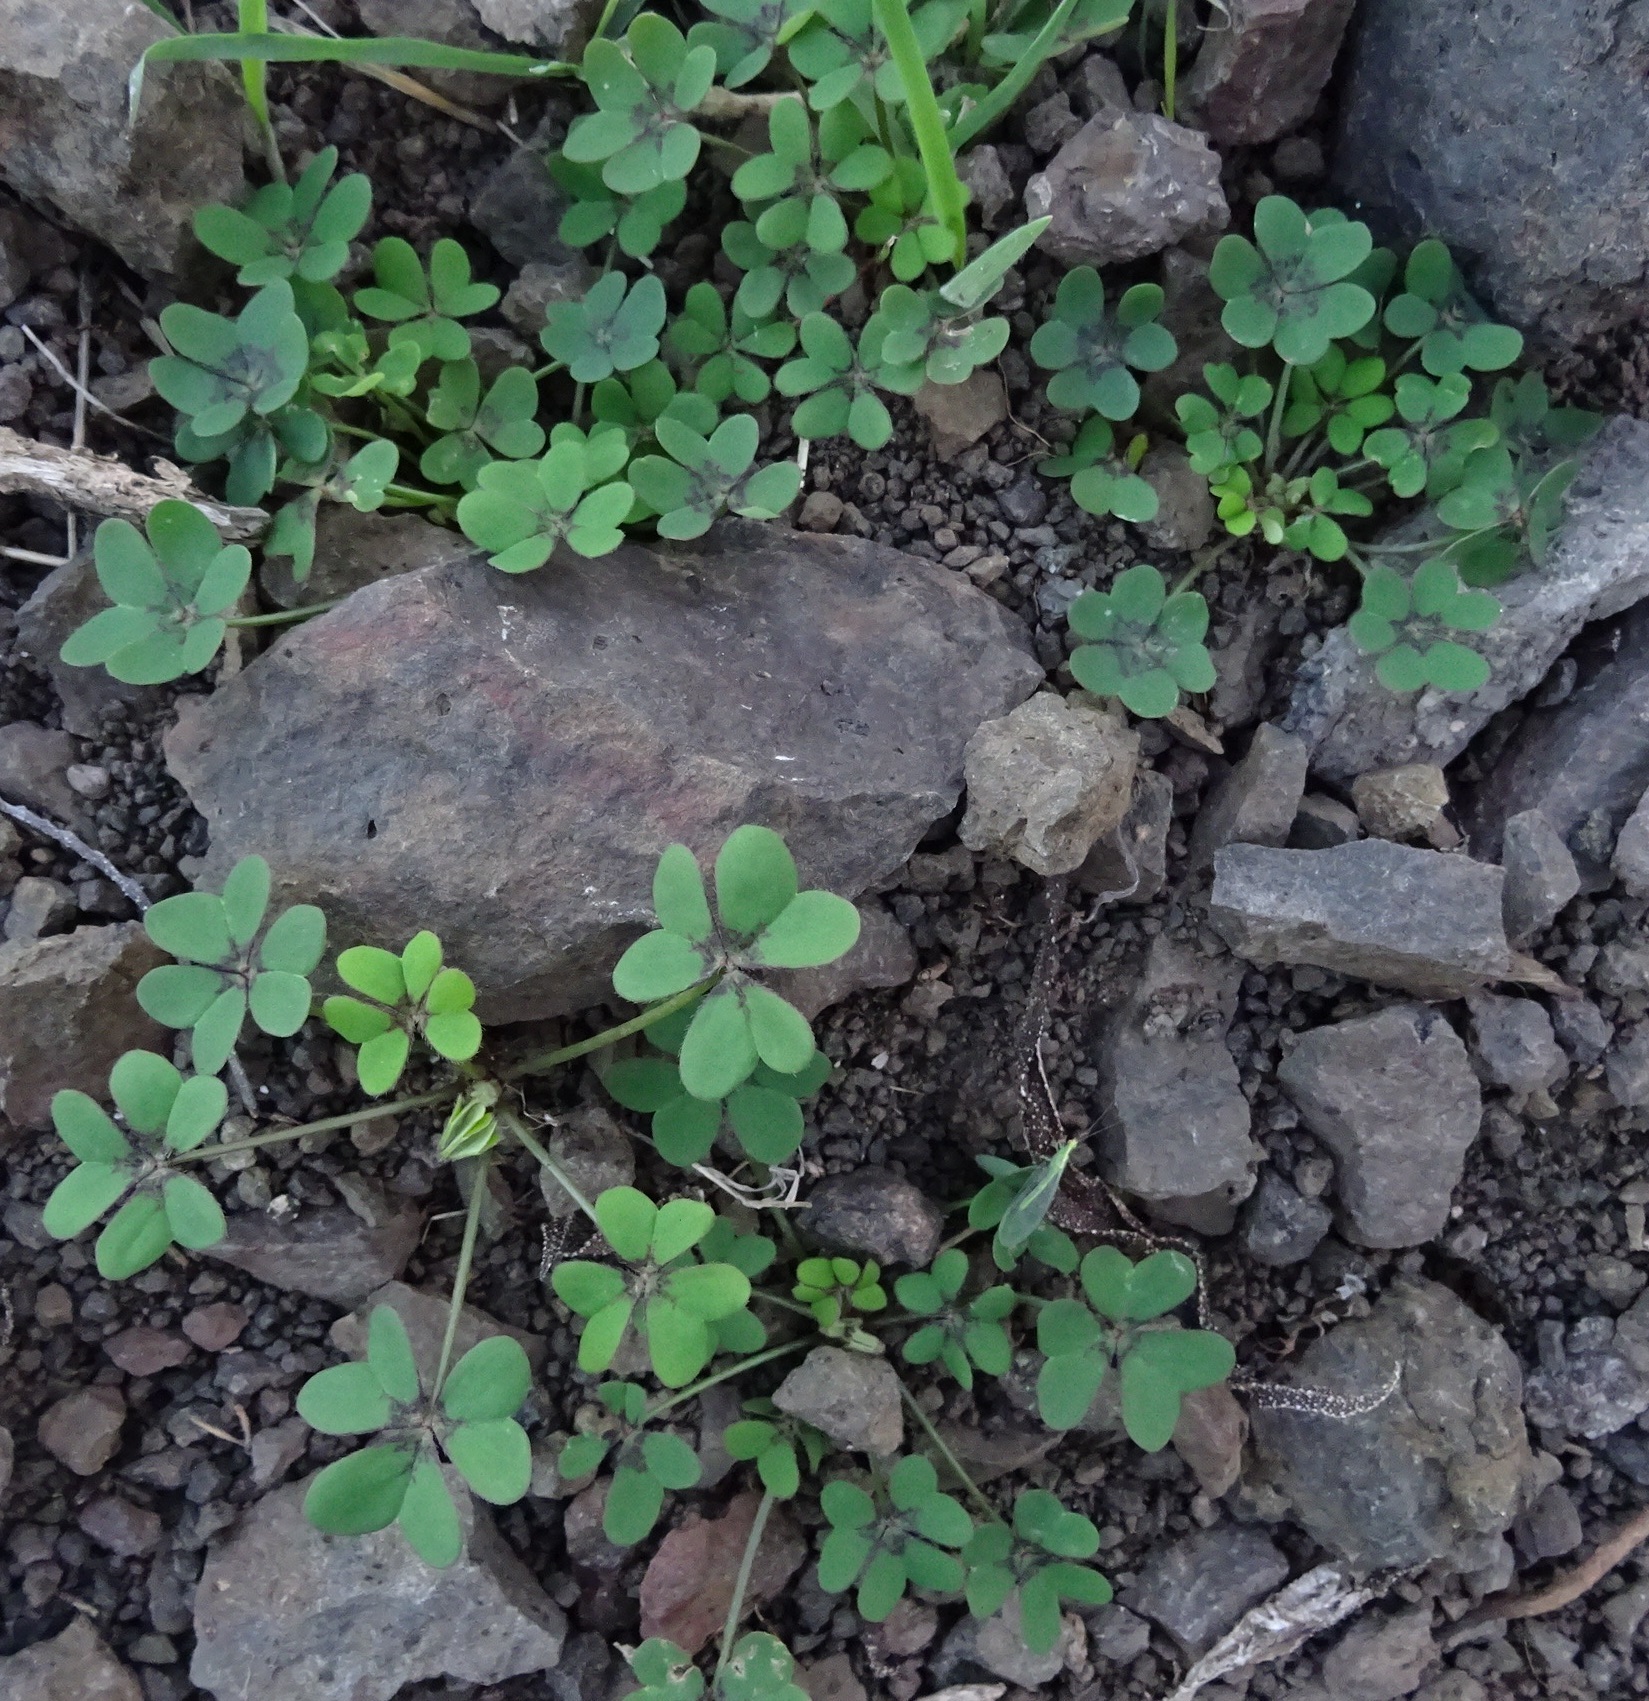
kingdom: Plantae
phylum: Tracheophyta
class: Magnoliopsida
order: Oxalidales
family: Oxalidaceae
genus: Oxalis
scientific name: Oxalis pes-caprae
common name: Bermuda-buttercup
